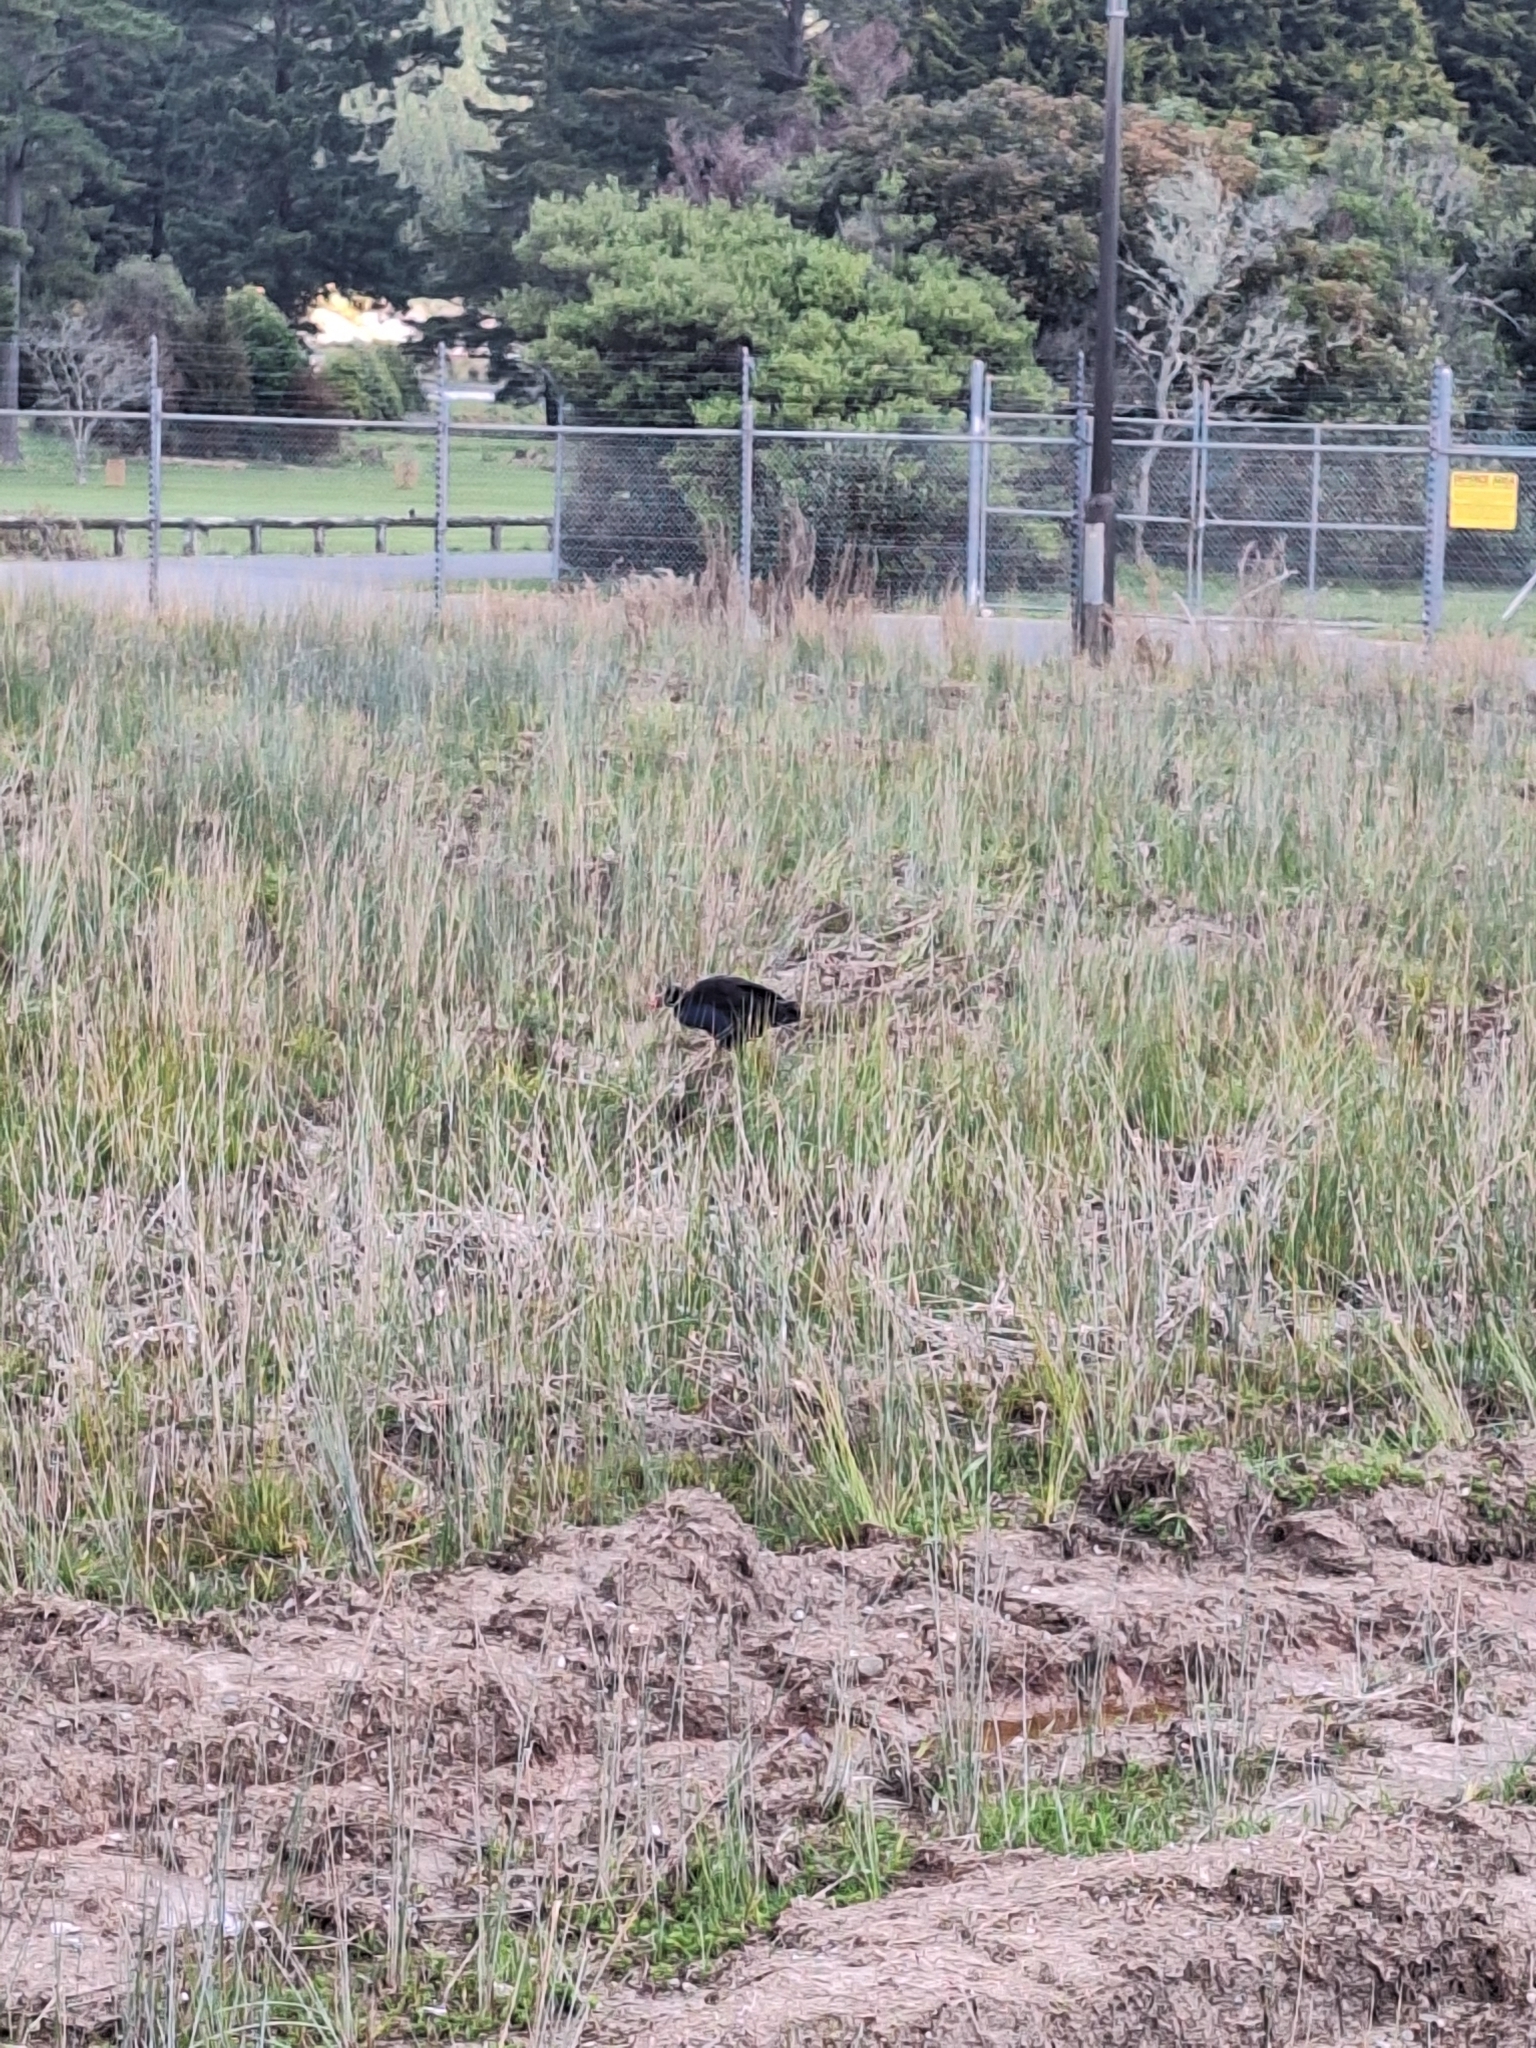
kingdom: Animalia
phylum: Chordata
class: Aves
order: Gruiformes
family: Rallidae
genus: Porphyrio
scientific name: Porphyrio melanotus
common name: Australasian swamphen
